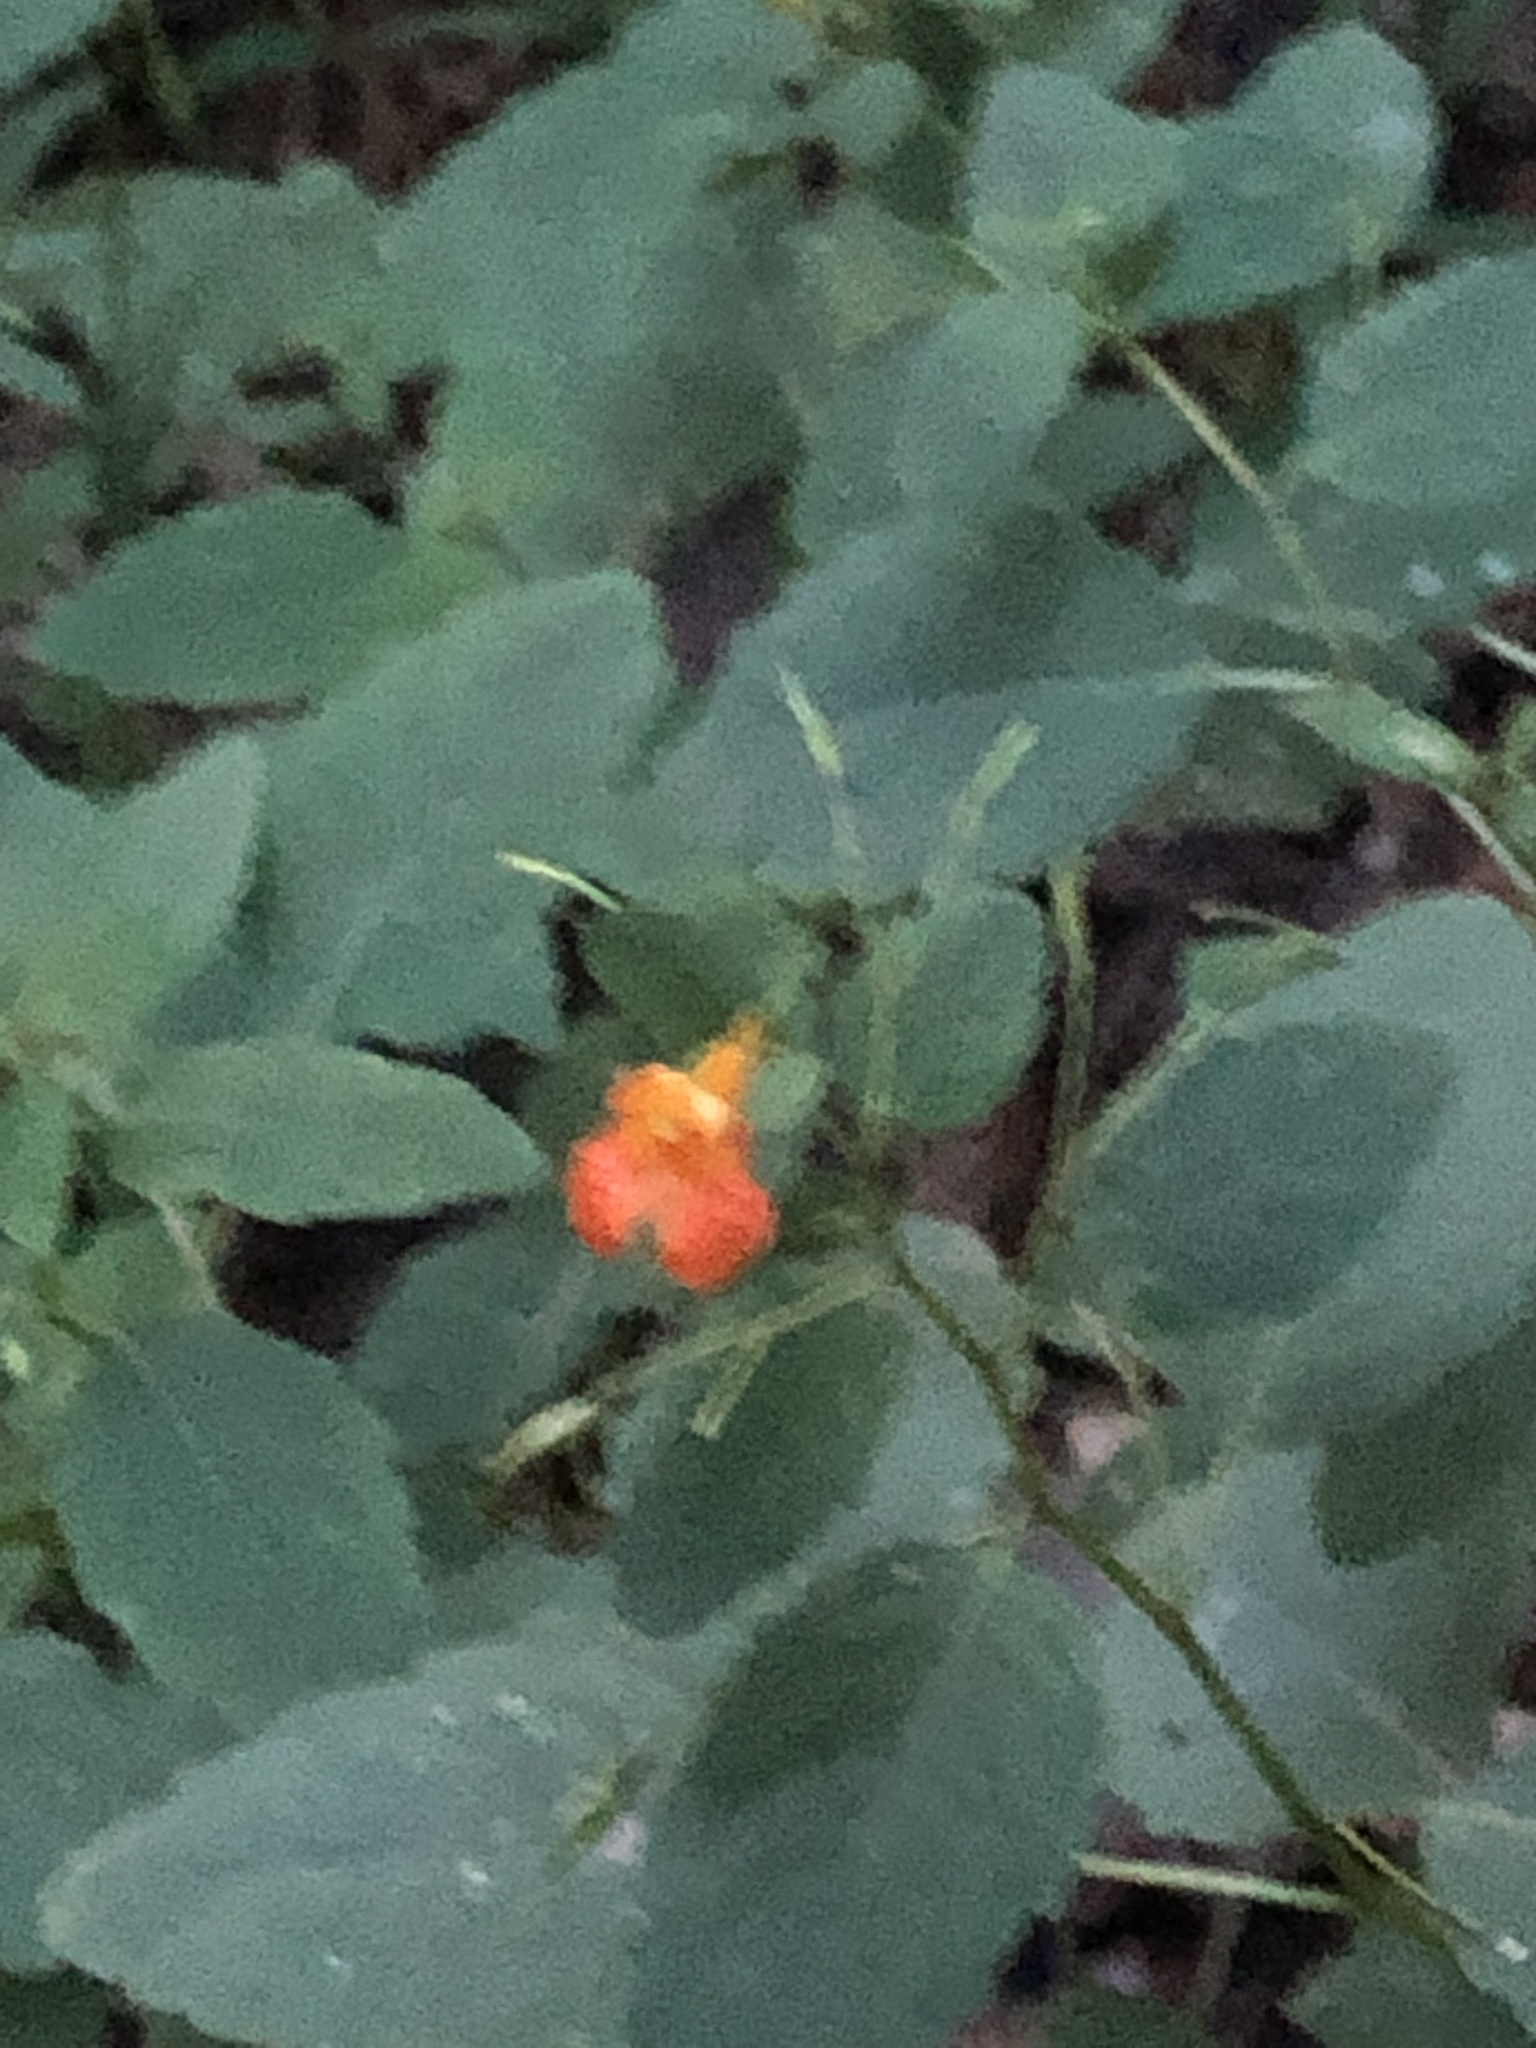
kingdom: Plantae
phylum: Tracheophyta
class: Magnoliopsida
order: Ericales
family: Balsaminaceae
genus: Impatiens
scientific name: Impatiens capensis
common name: Orange balsam
